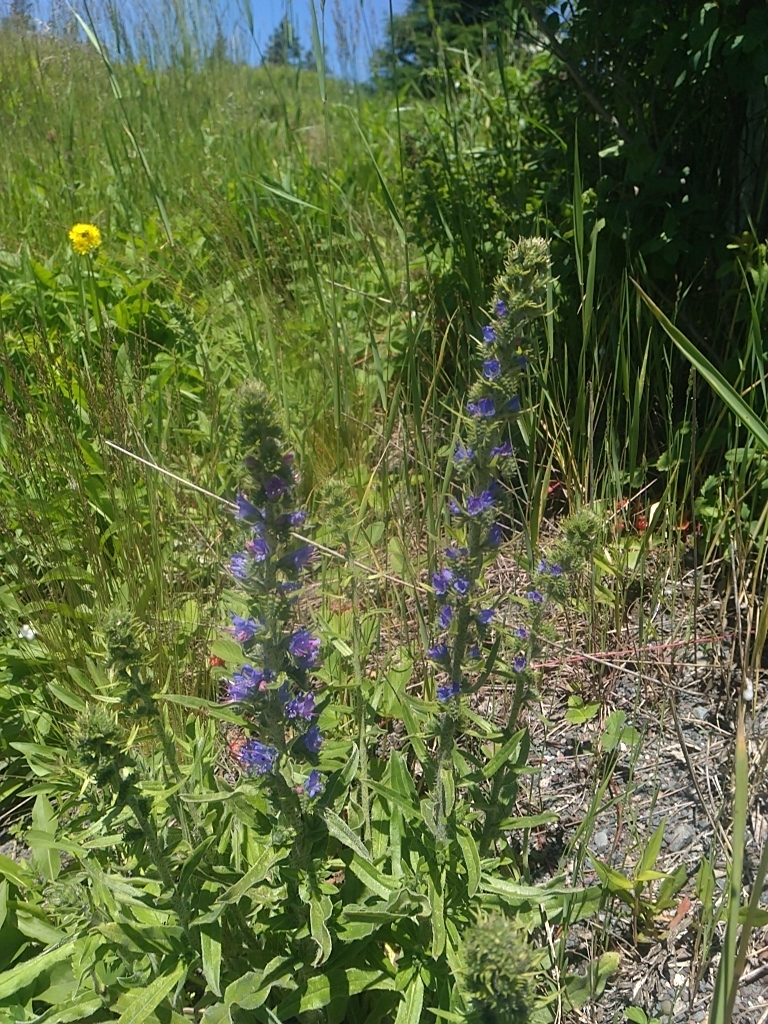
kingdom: Plantae
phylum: Tracheophyta
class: Magnoliopsida
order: Boraginales
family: Boraginaceae
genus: Echium
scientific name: Echium vulgare
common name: Common viper's bugloss
